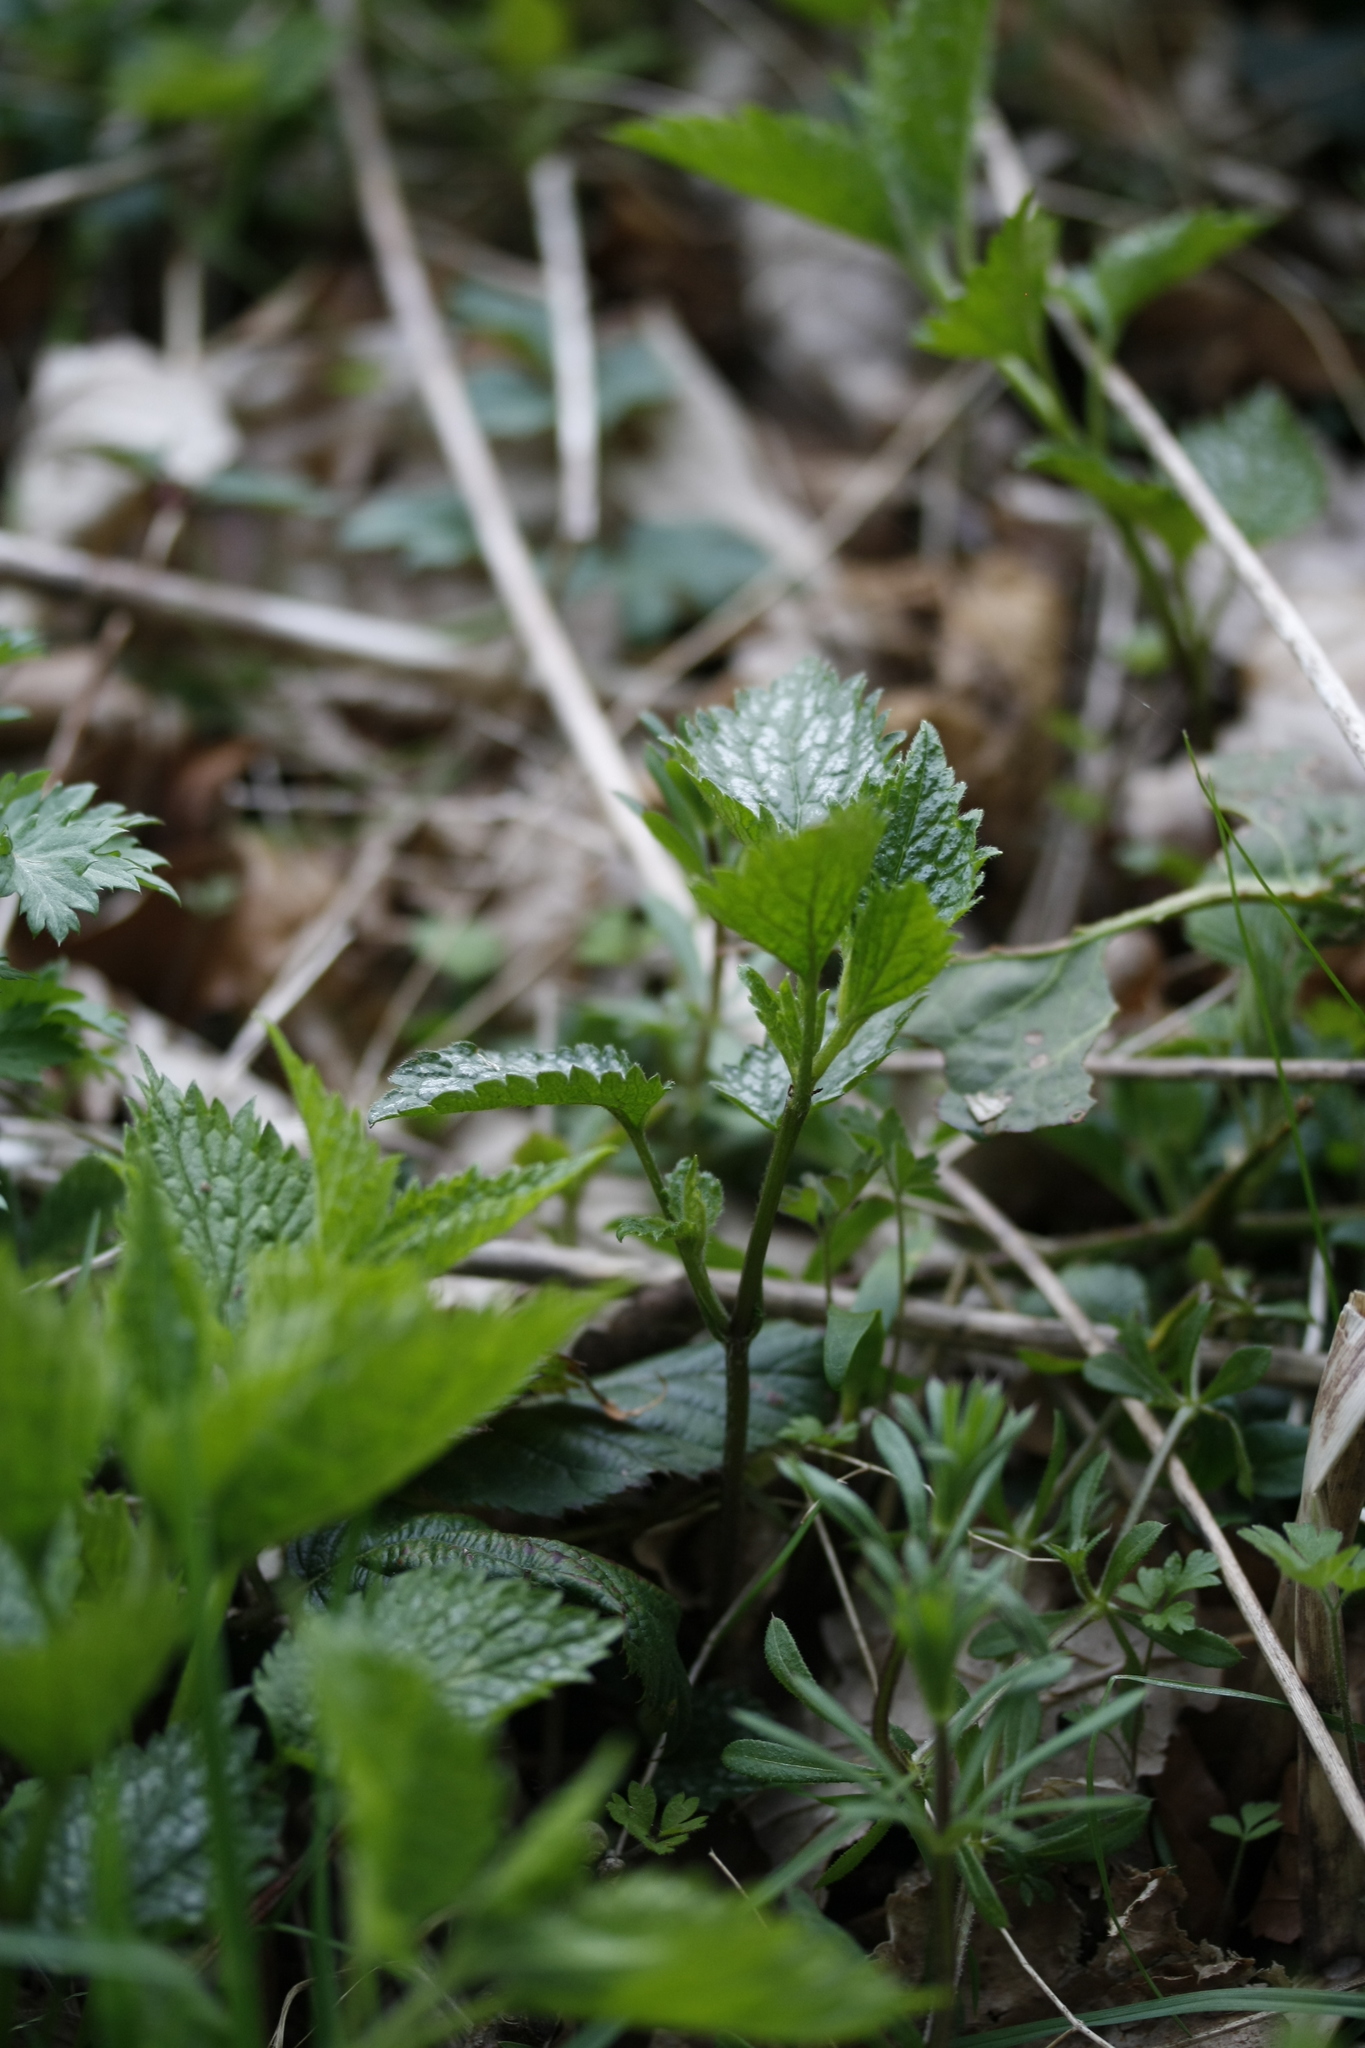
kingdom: Plantae
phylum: Tracheophyta
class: Magnoliopsida
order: Lamiales
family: Lamiaceae
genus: Lamium
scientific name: Lamium galeobdolon
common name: Yellow archangel
